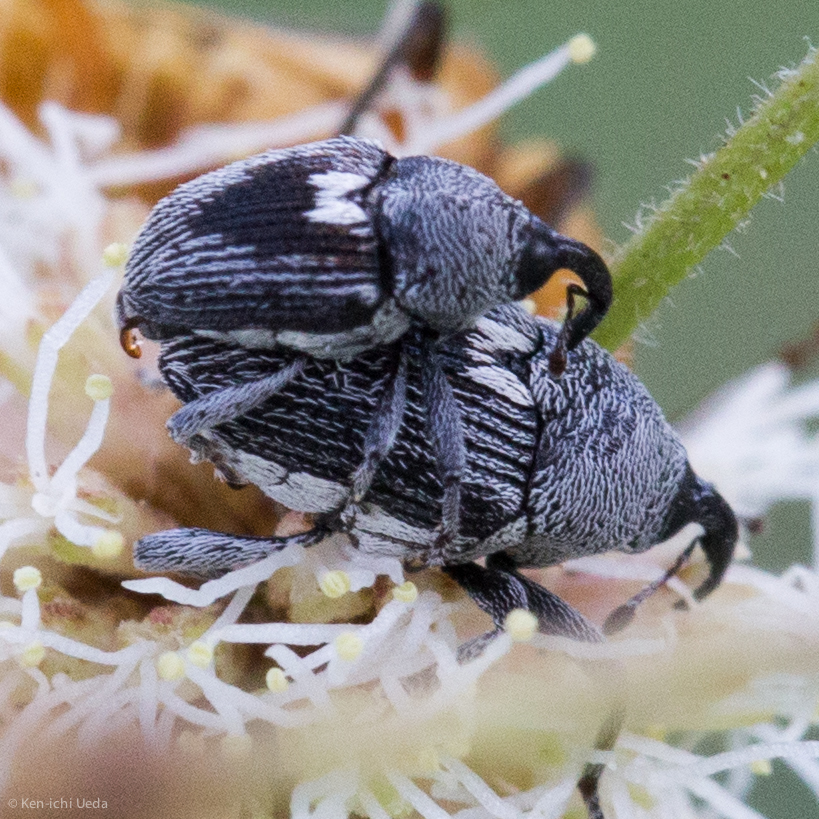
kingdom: Animalia
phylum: Arthropoda
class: Insecta
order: Coleoptera
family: Curculionidae
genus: Geraeus
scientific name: Geraeus
